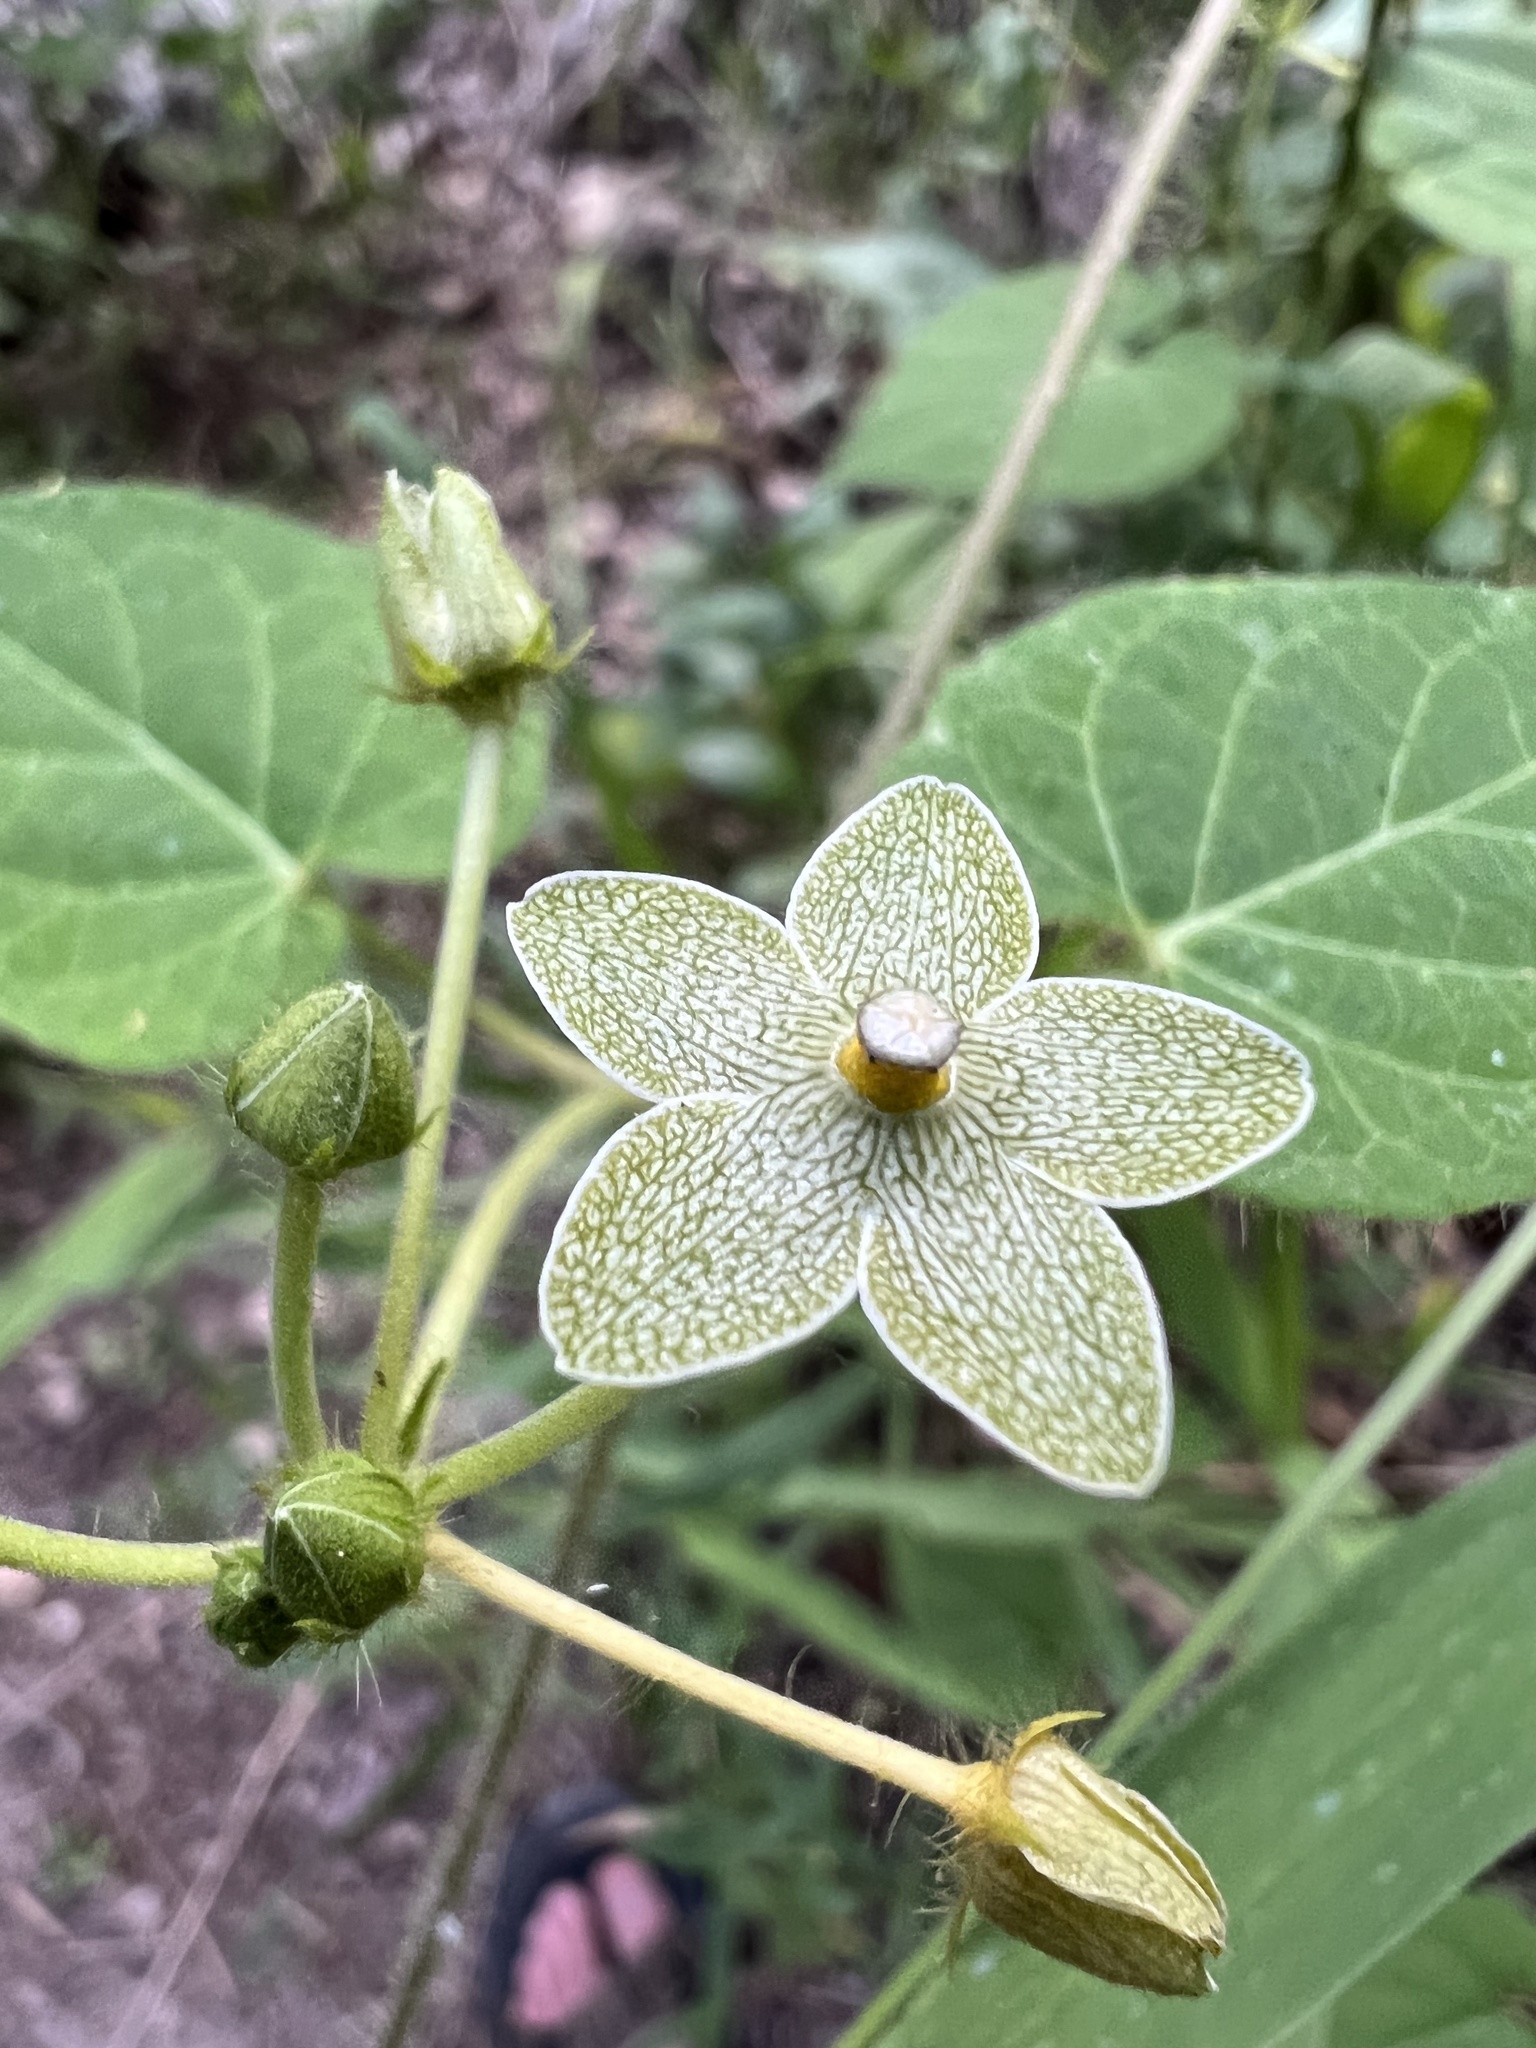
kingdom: Plantae
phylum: Tracheophyta
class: Magnoliopsida
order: Gentianales
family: Apocynaceae
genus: Dictyanthus
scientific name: Dictyanthus reticulatus
